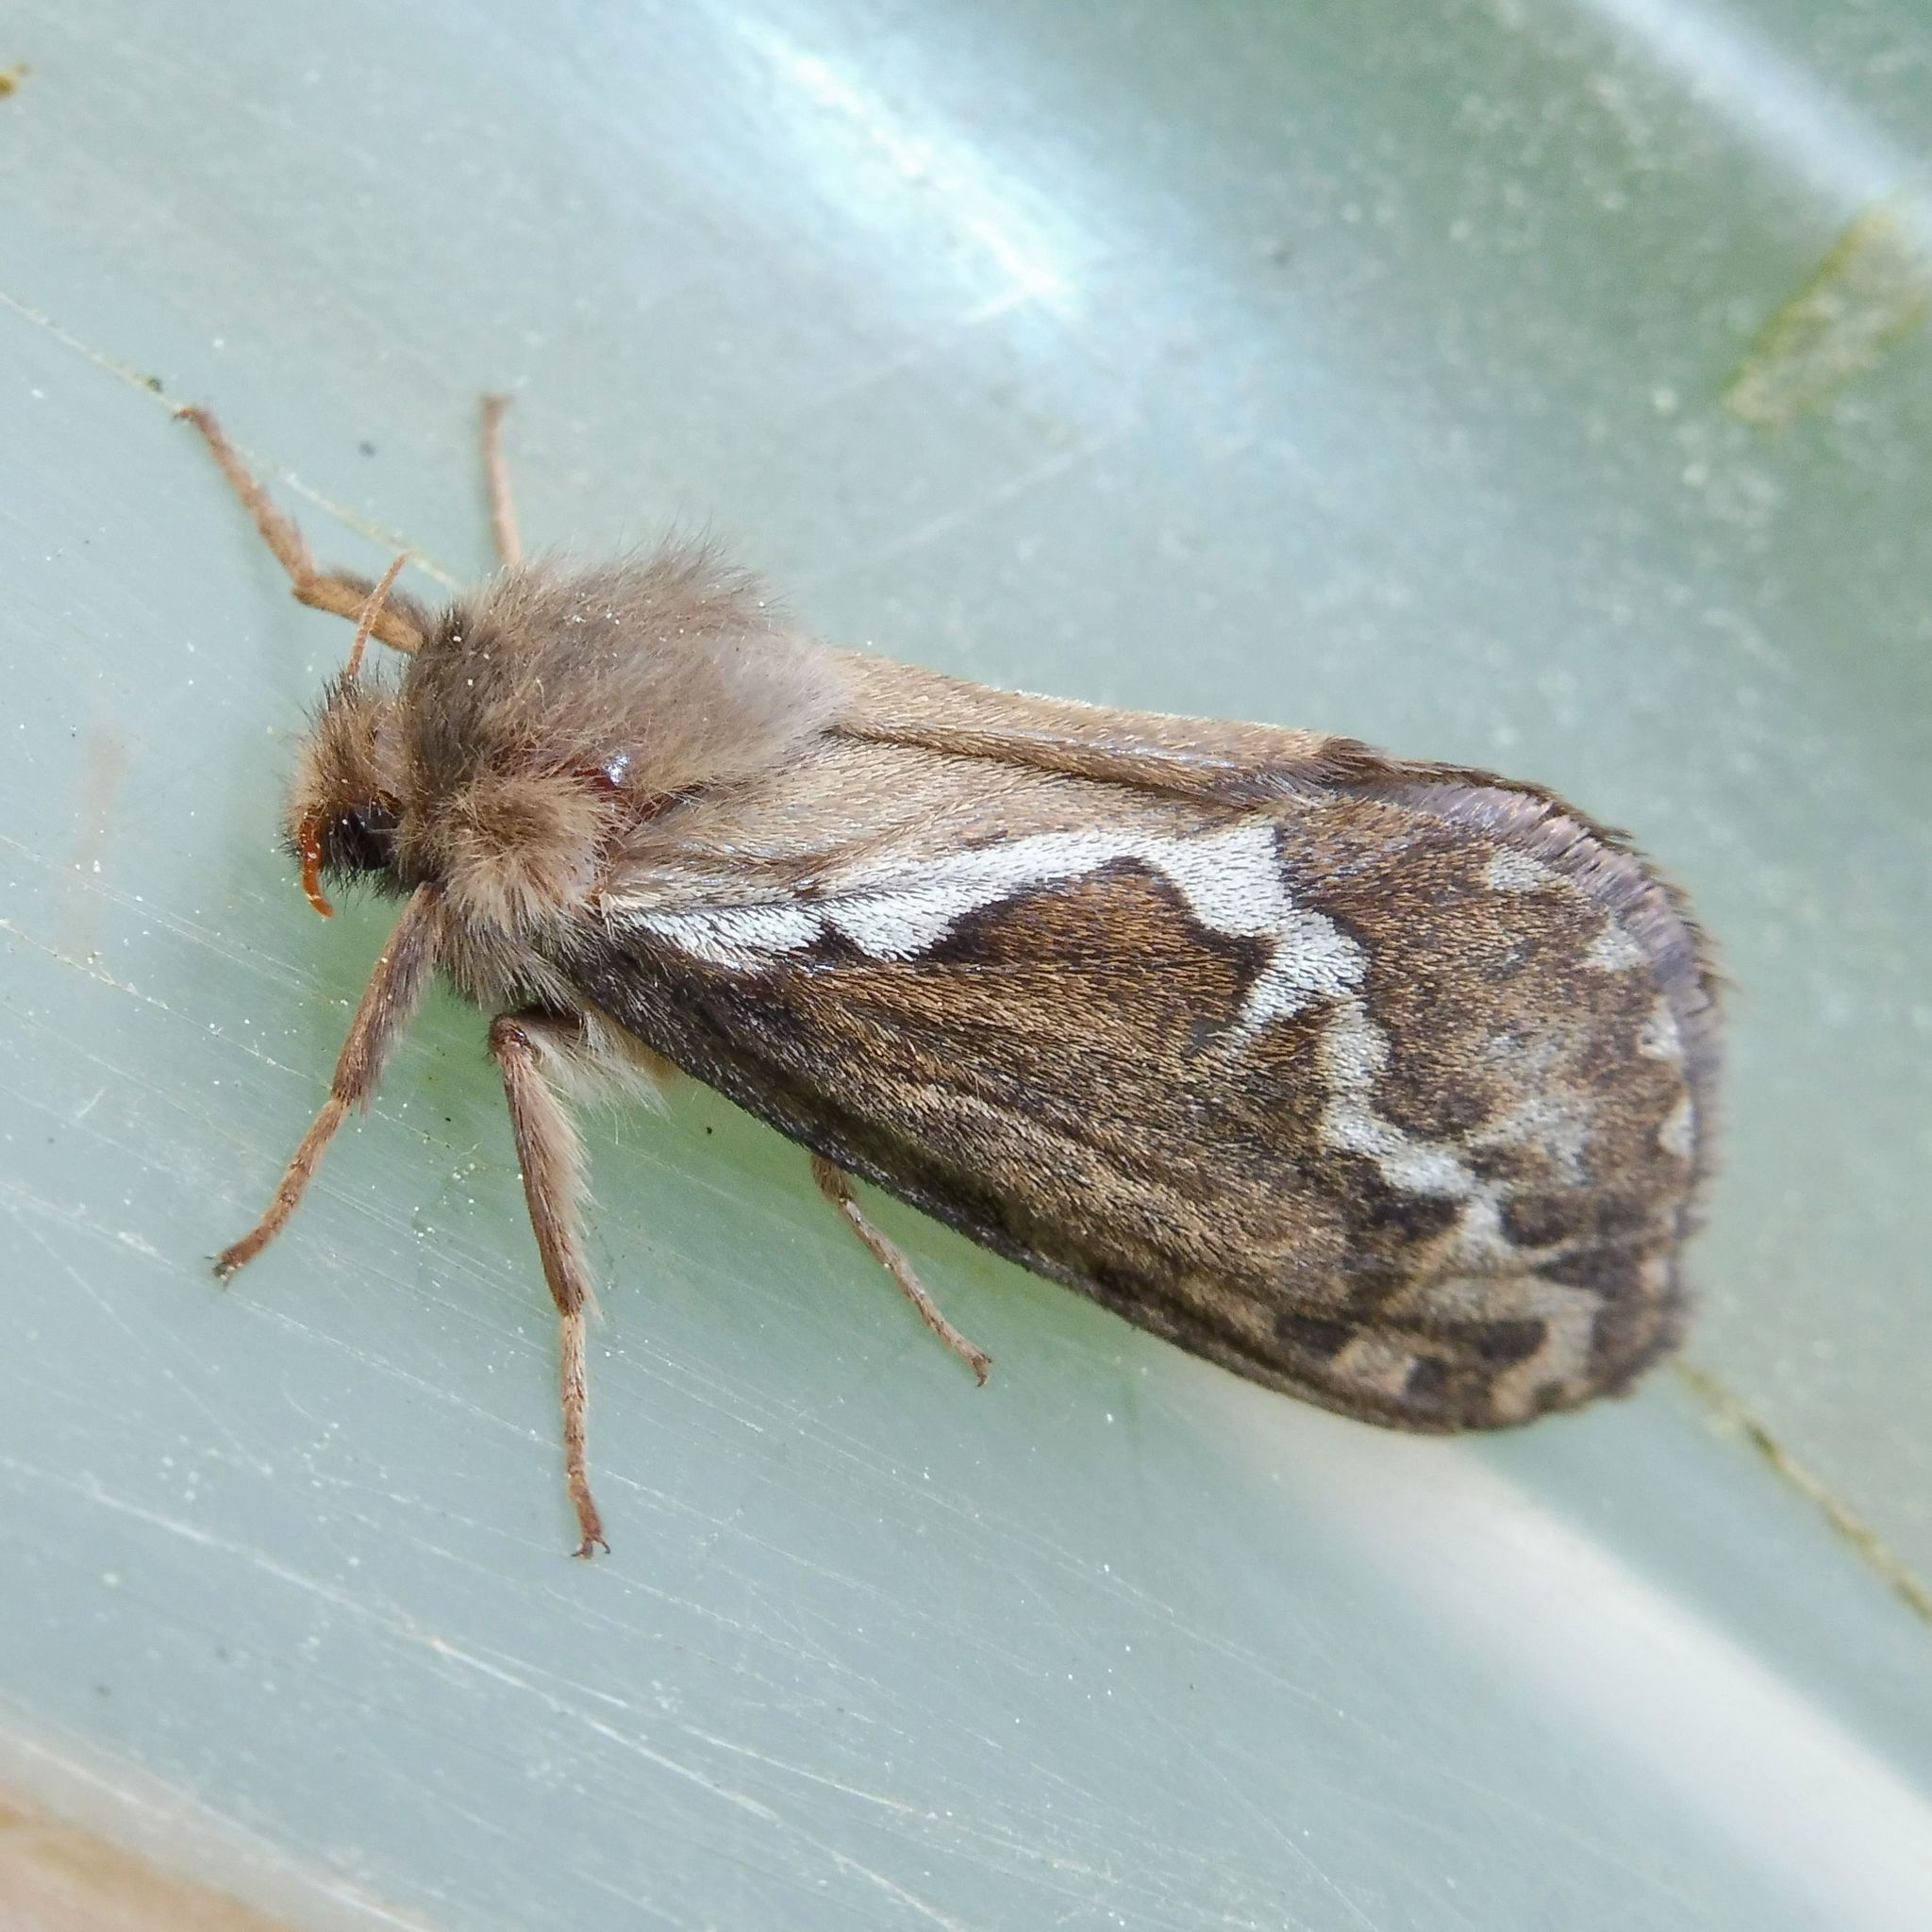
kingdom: Animalia
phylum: Arthropoda
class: Insecta
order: Lepidoptera
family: Hepialidae
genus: Korscheltellus
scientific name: Korscheltellus lupulina
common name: Common swift
